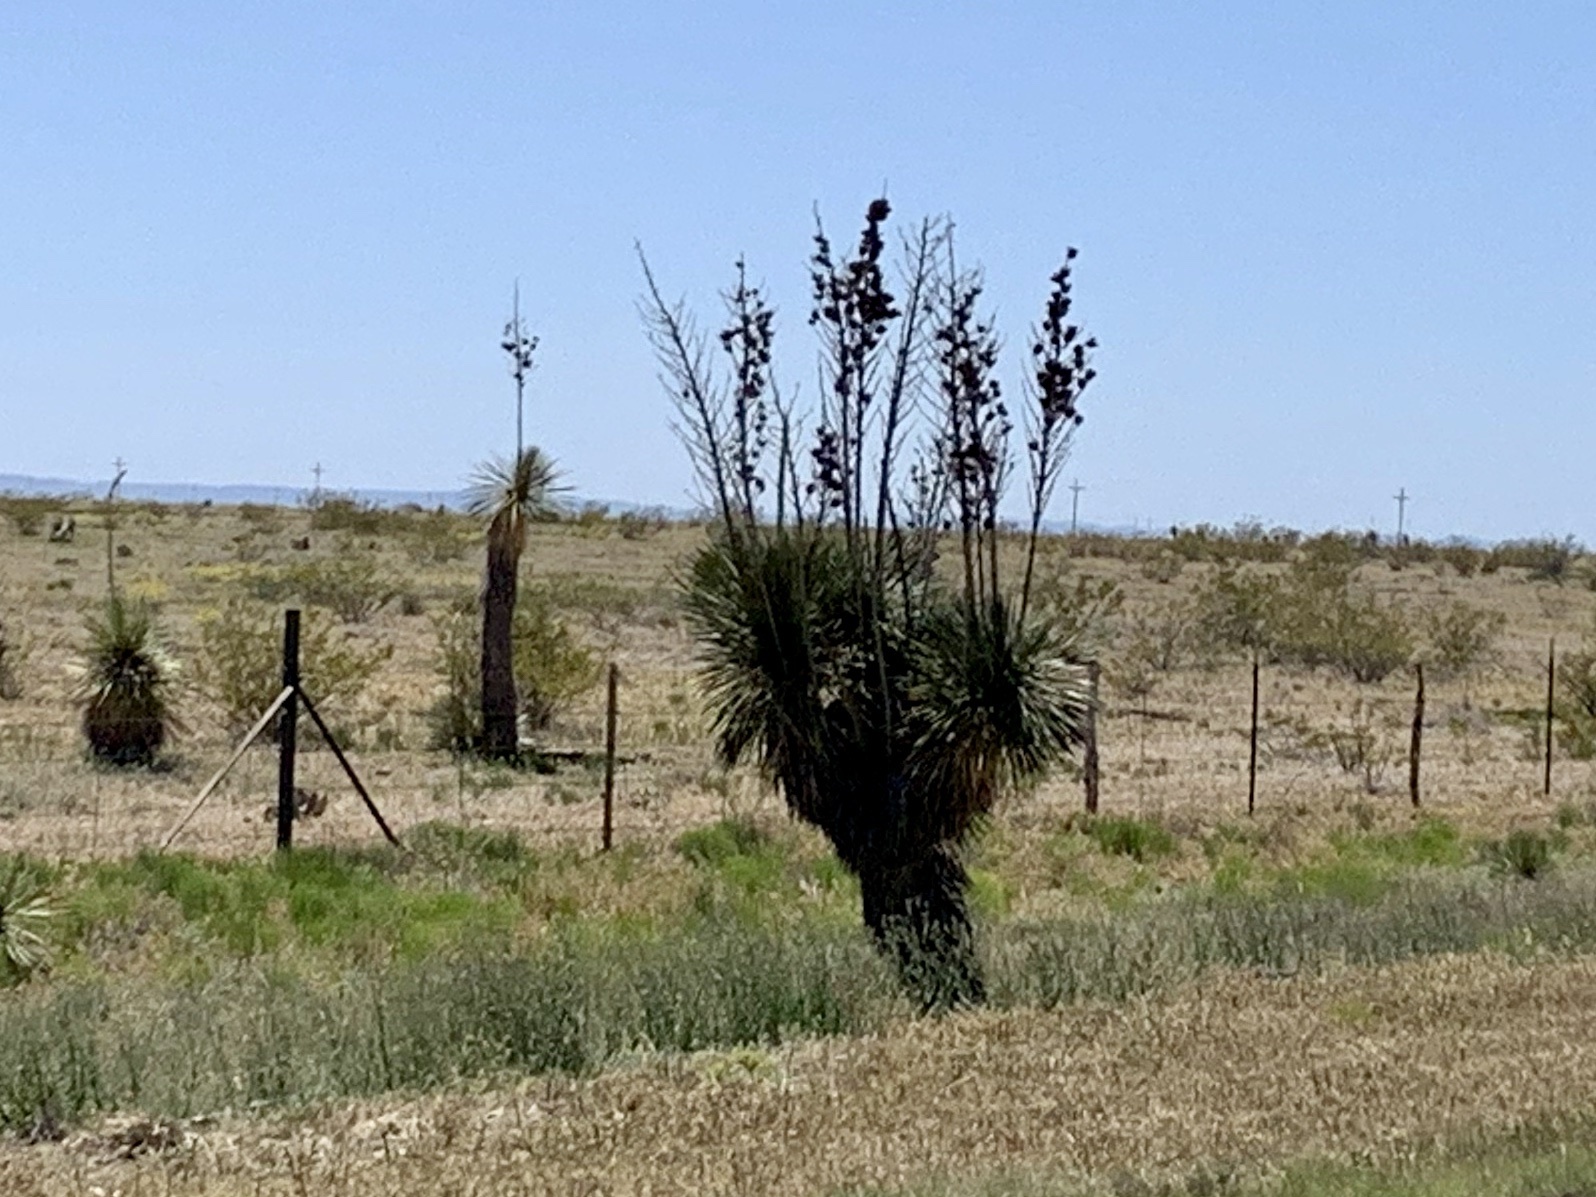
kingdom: Plantae
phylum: Tracheophyta
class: Liliopsida
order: Asparagales
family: Asparagaceae
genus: Yucca
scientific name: Yucca elata
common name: Palmella
